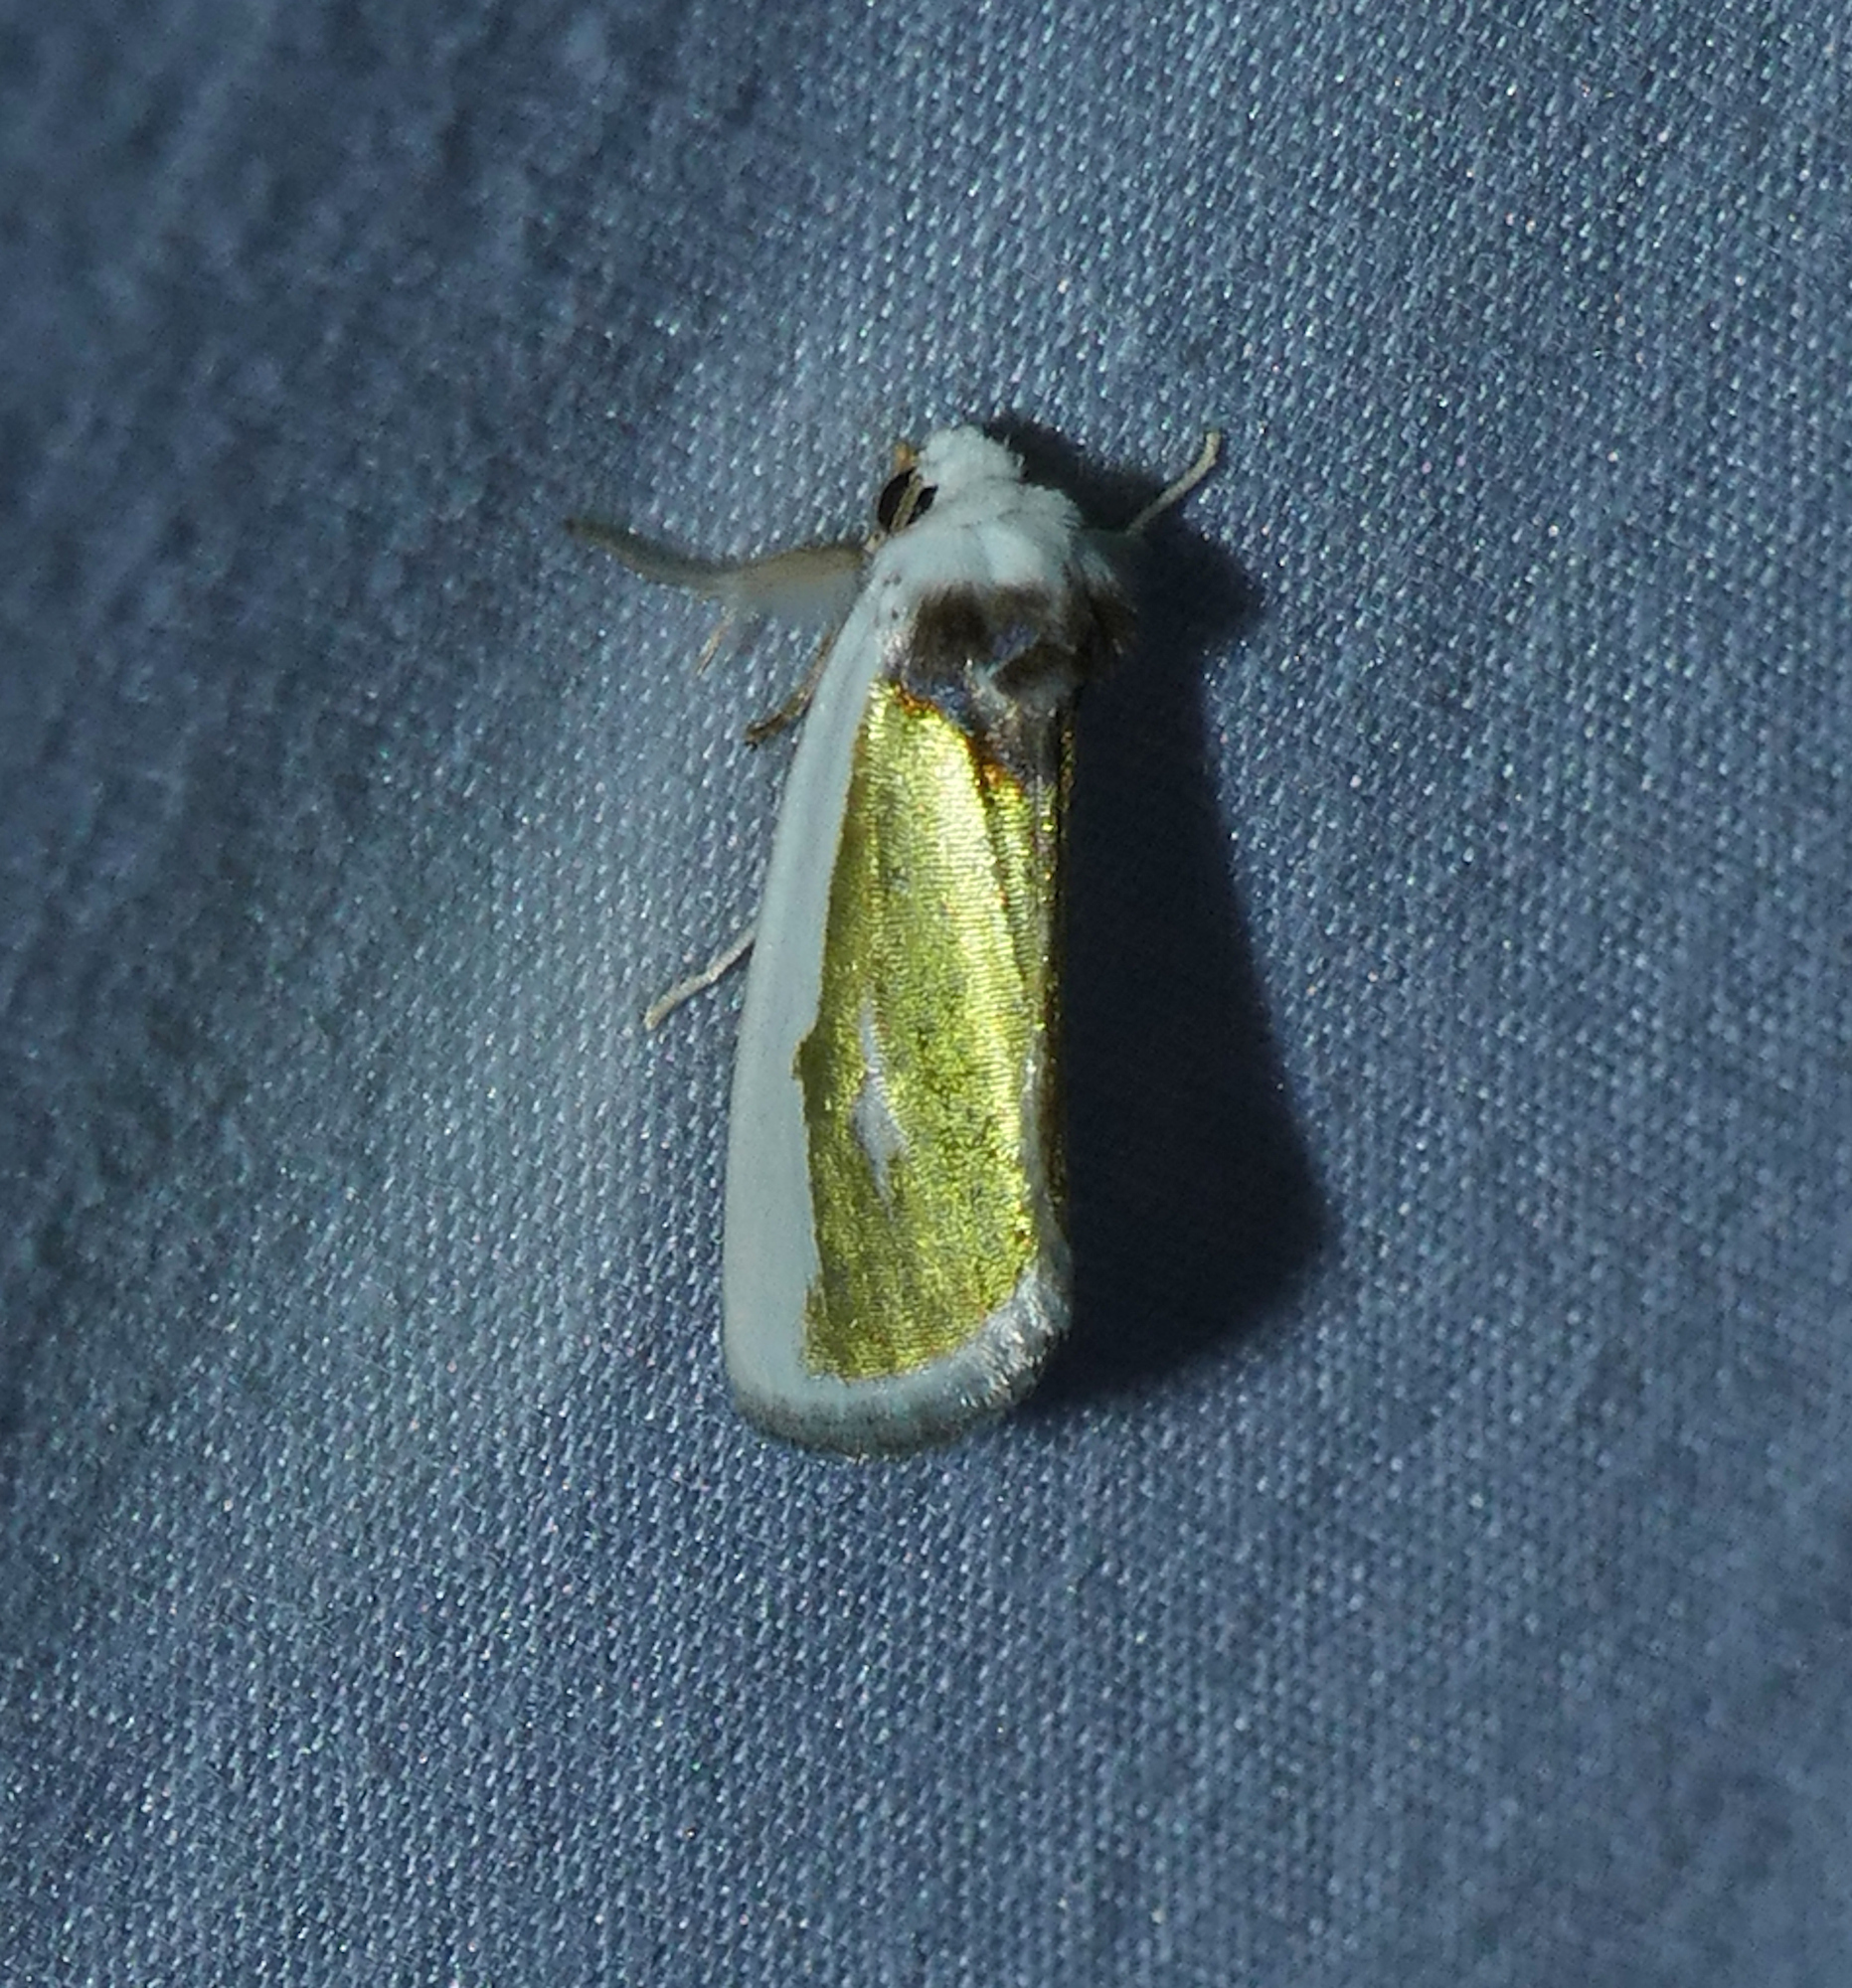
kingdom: Animalia
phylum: Arthropoda
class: Insecta
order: Lepidoptera
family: Noctuidae
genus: Neumoegenia
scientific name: Neumoegenia poetica
